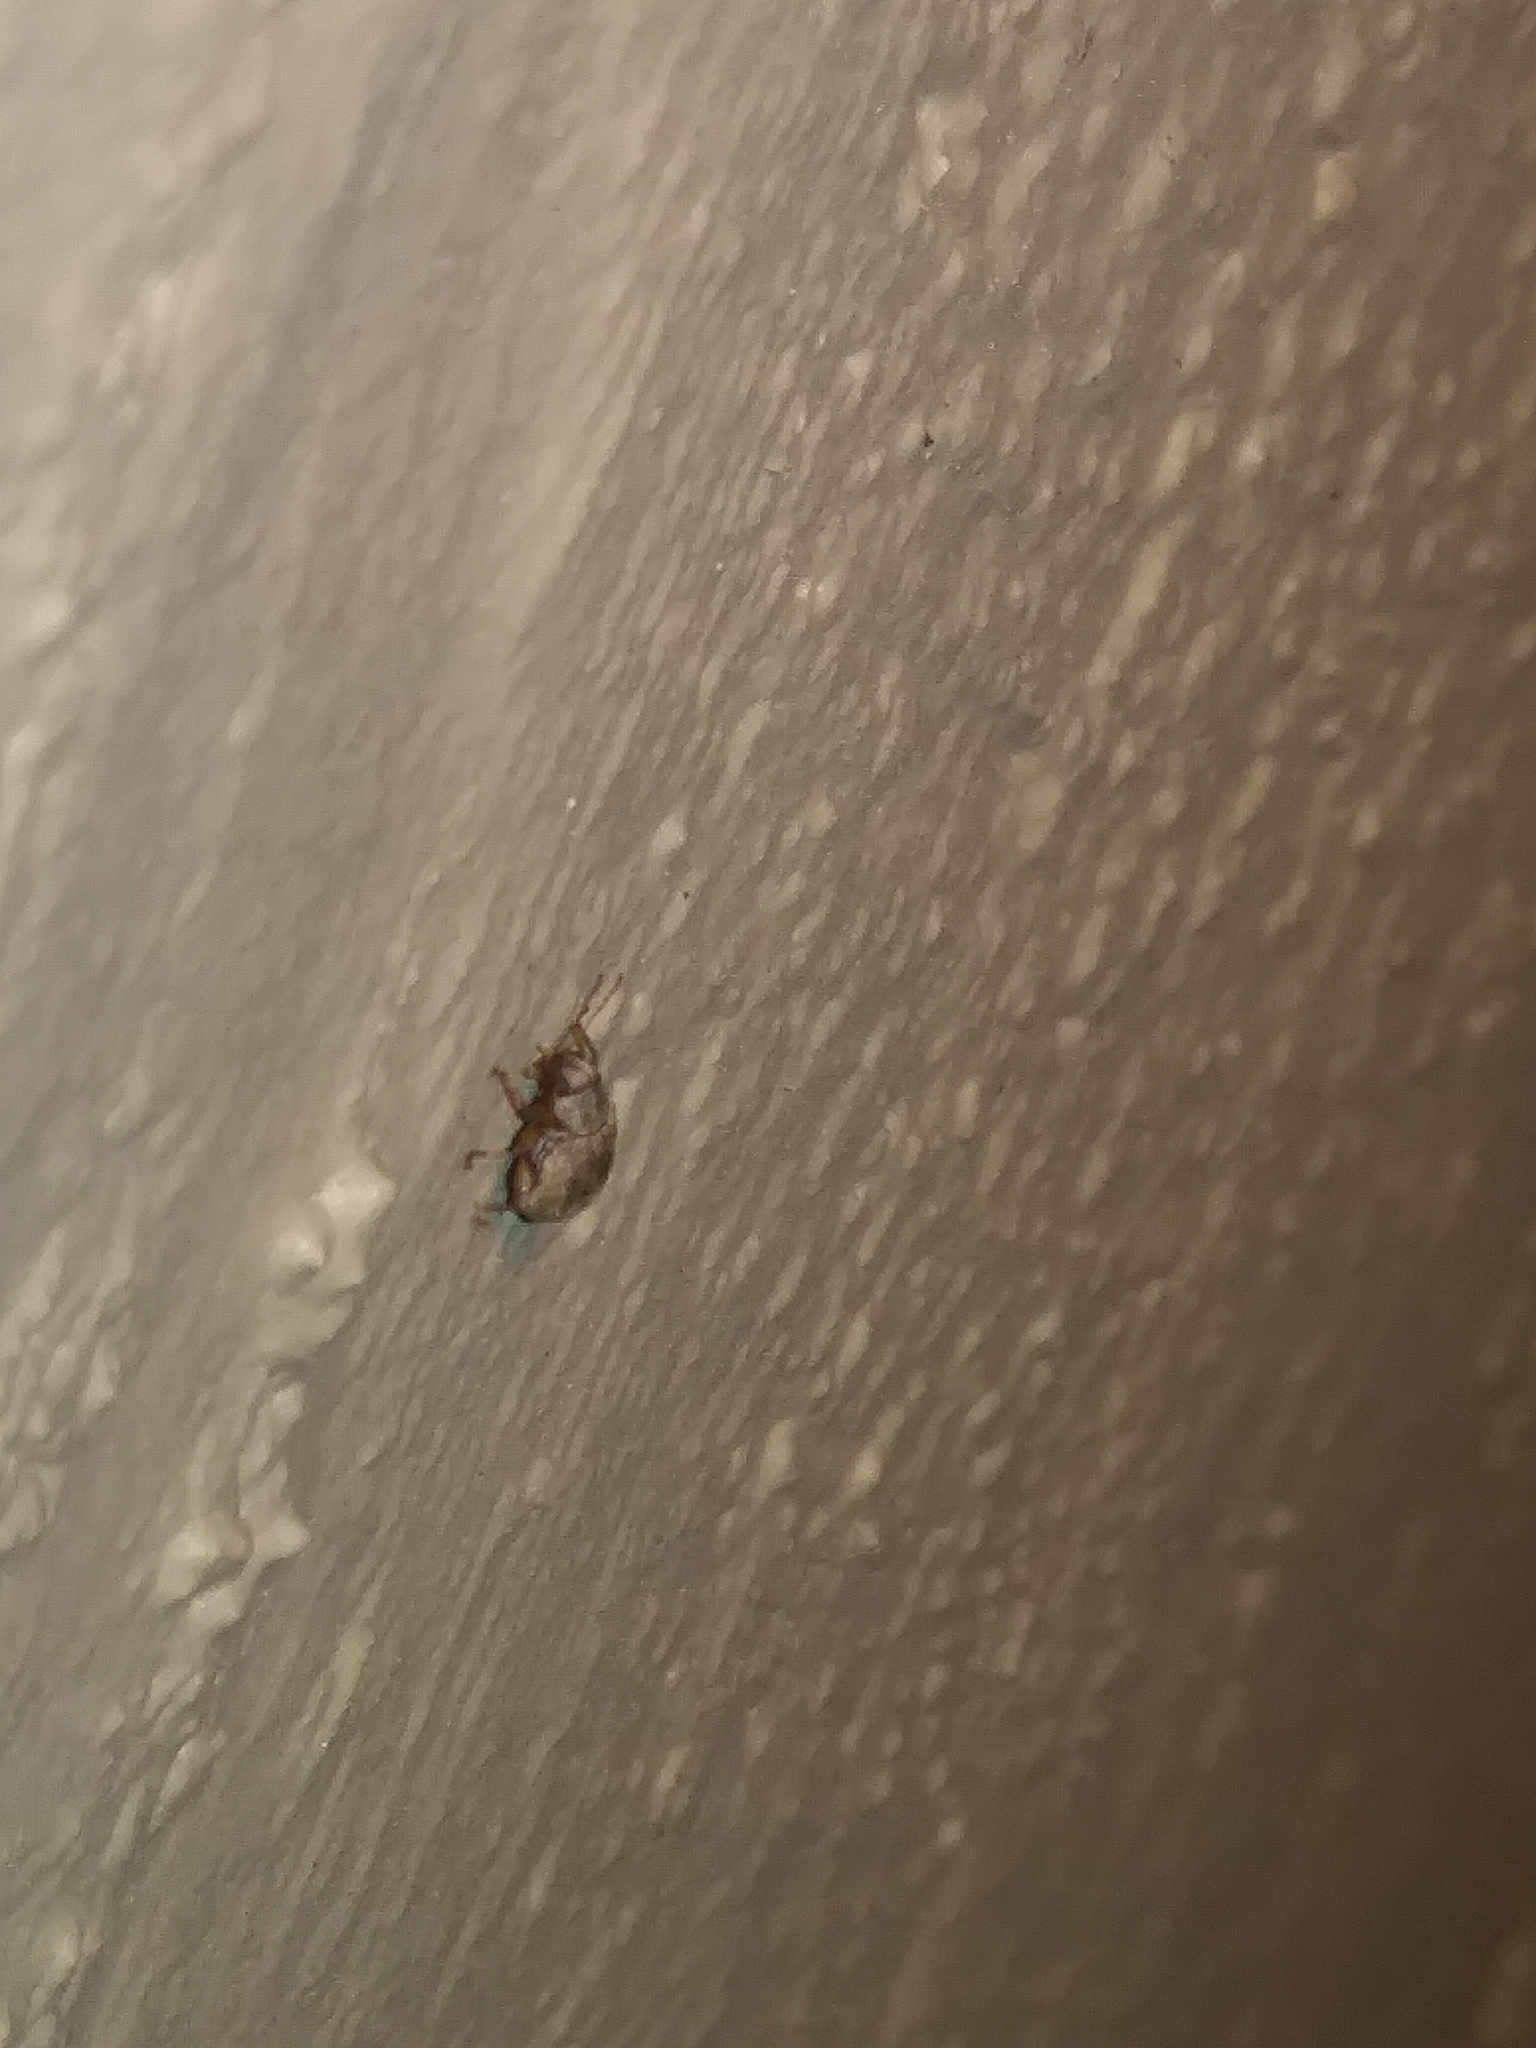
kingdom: Animalia
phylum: Arthropoda
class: Insecta
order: Coleoptera
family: Chrysomelidae
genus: Demotina
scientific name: Demotina modesta
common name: Leaf beetle
